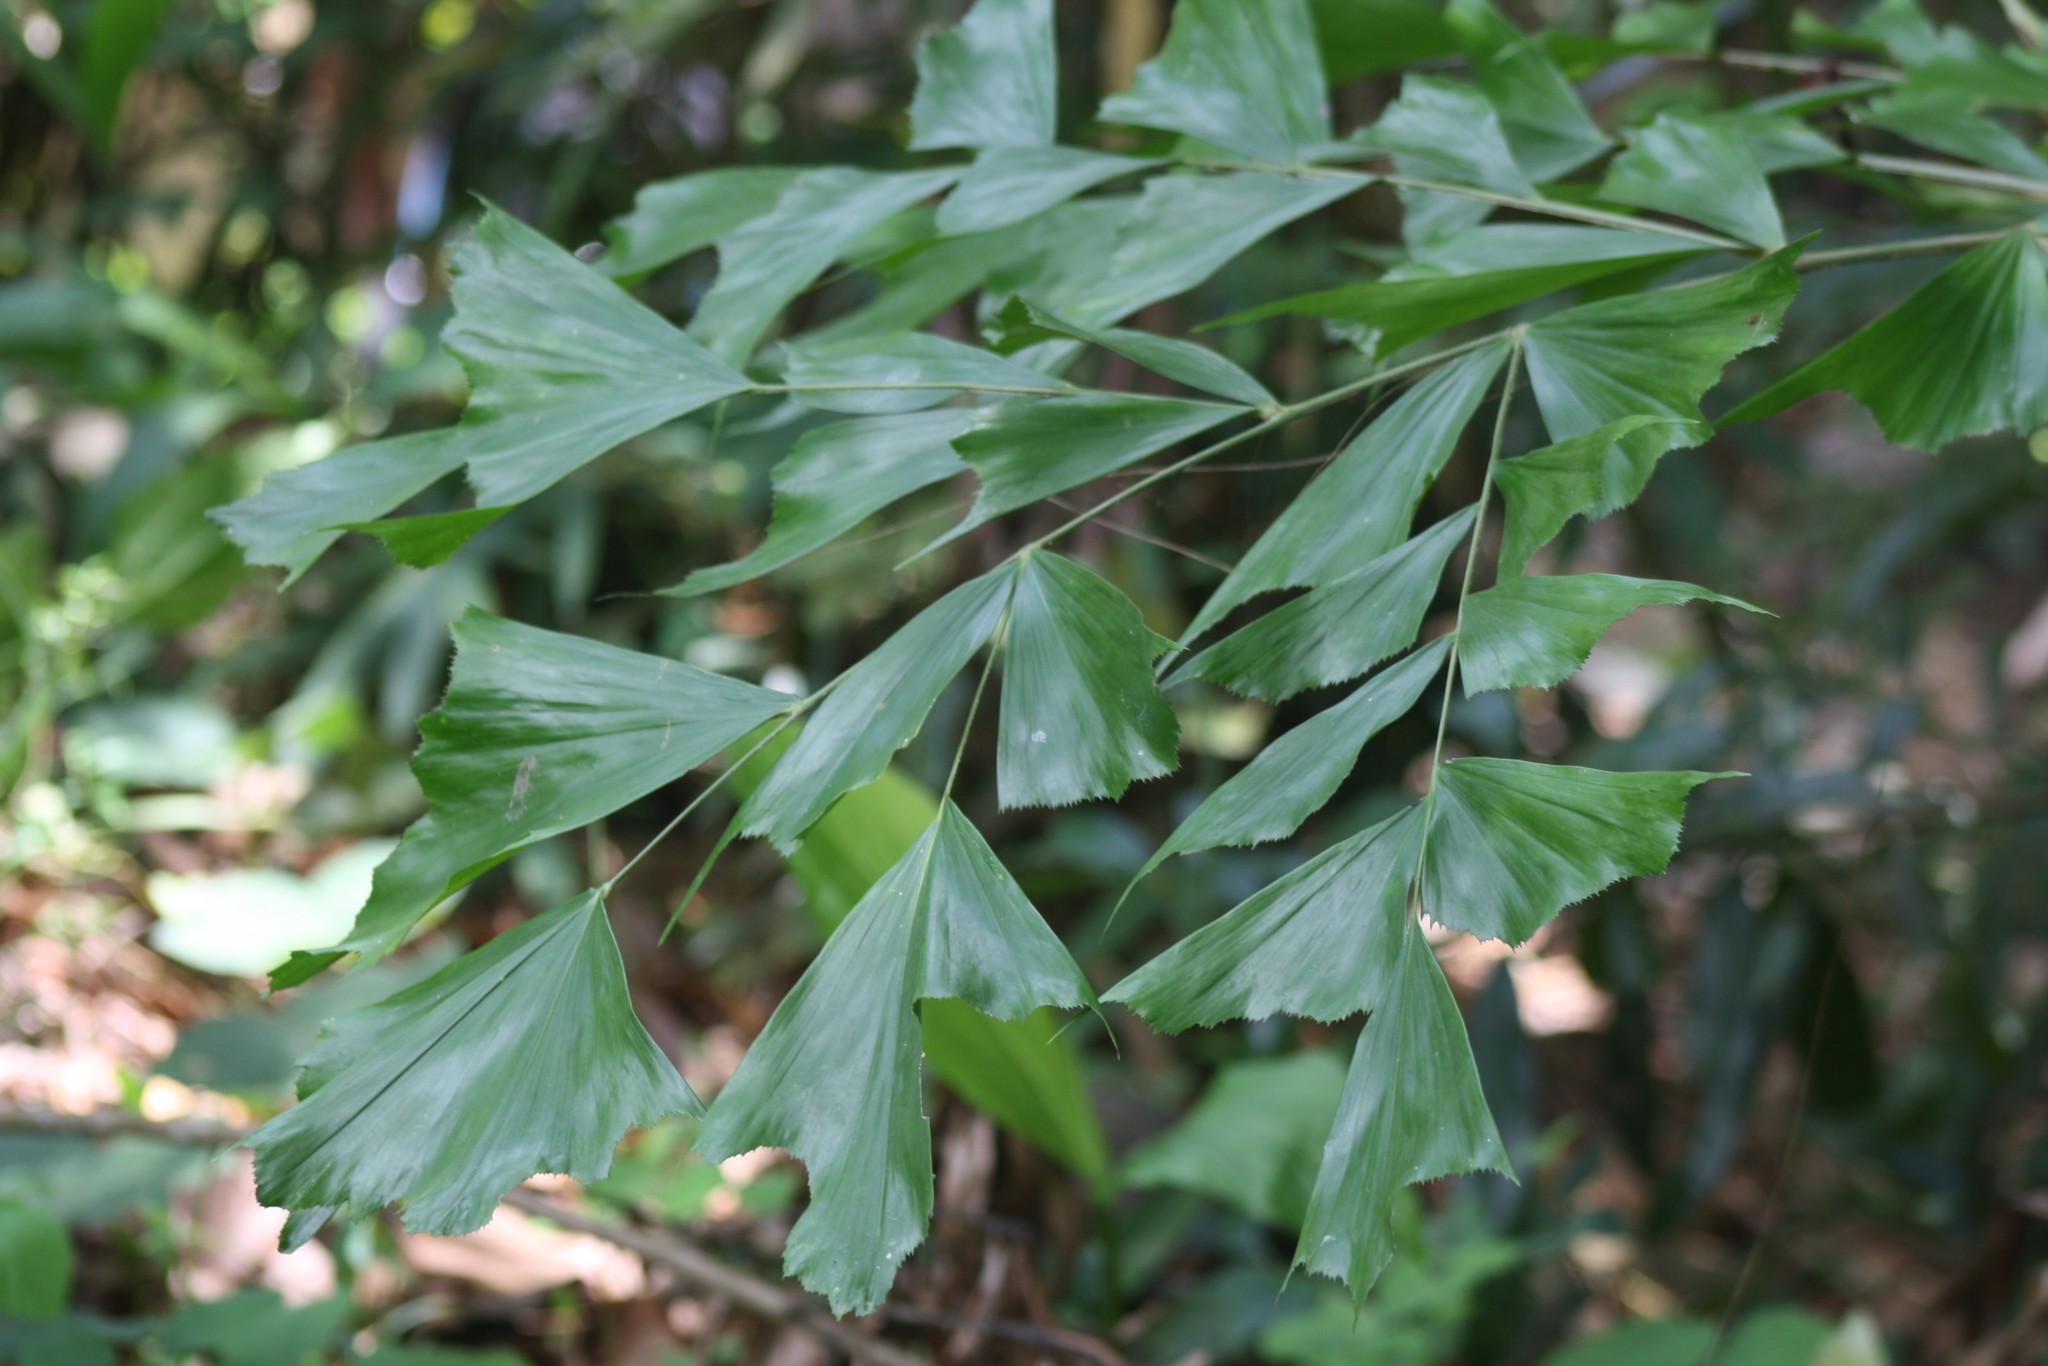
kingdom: Plantae
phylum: Tracheophyta
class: Liliopsida
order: Arecales
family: Arecaceae
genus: Caryota
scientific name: Caryota urens
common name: Jaggery palm
